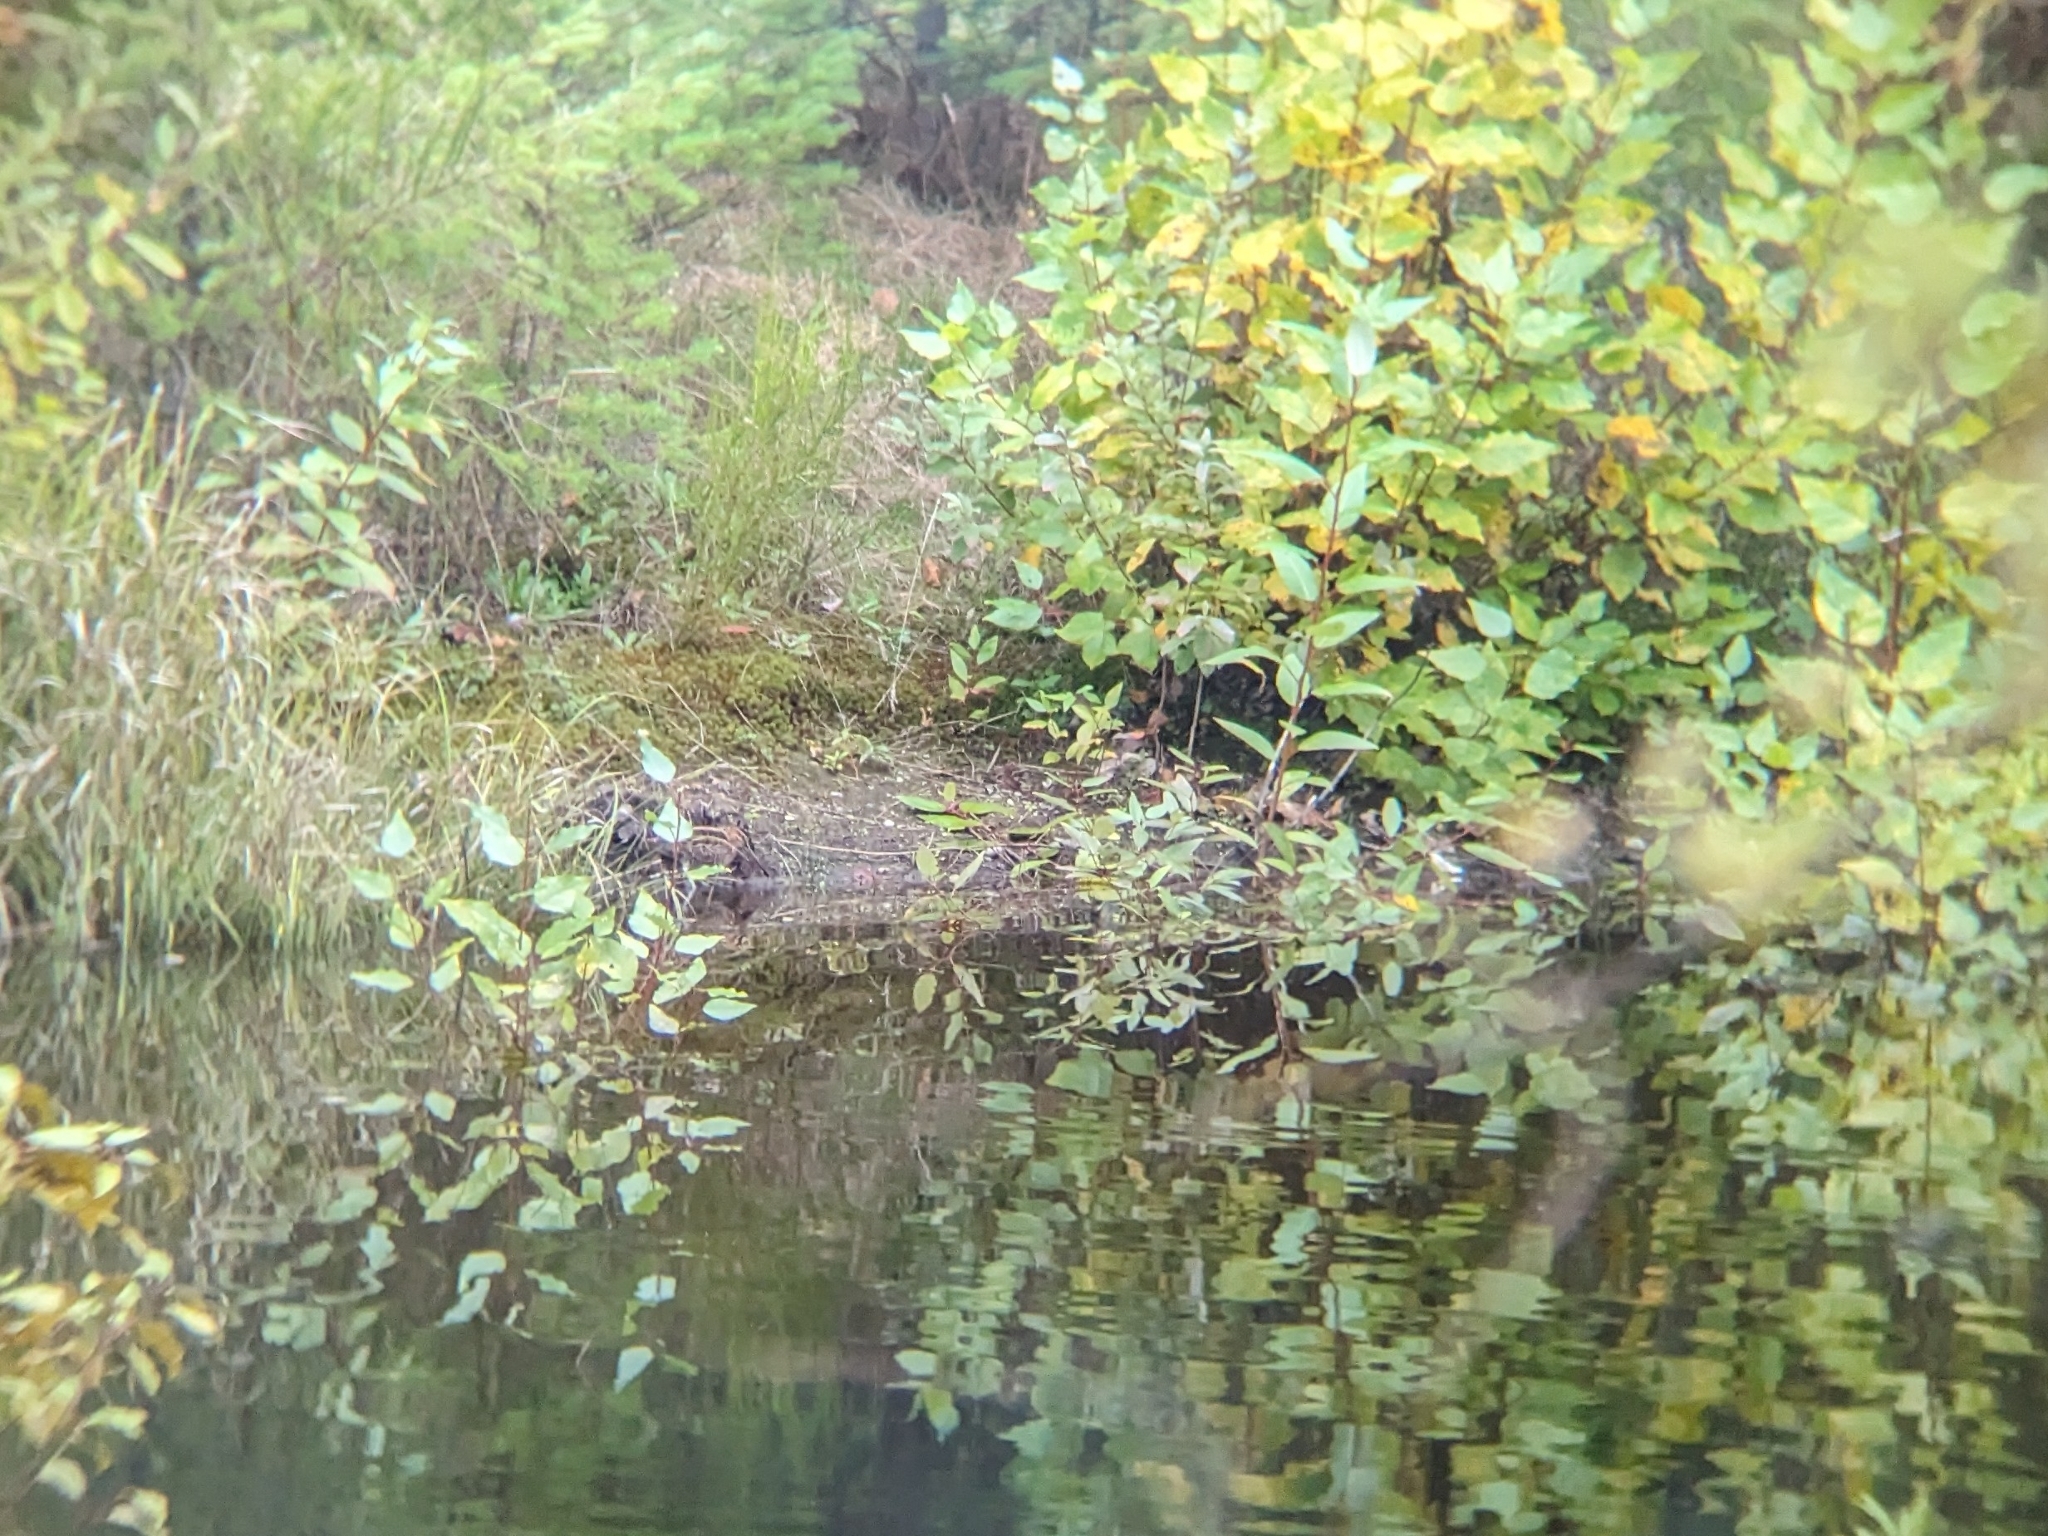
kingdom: Animalia
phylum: Chordata
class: Aves
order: Charadriiformes
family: Scolopacidae
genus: Gallinago
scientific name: Gallinago delicata
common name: Wilson's snipe
